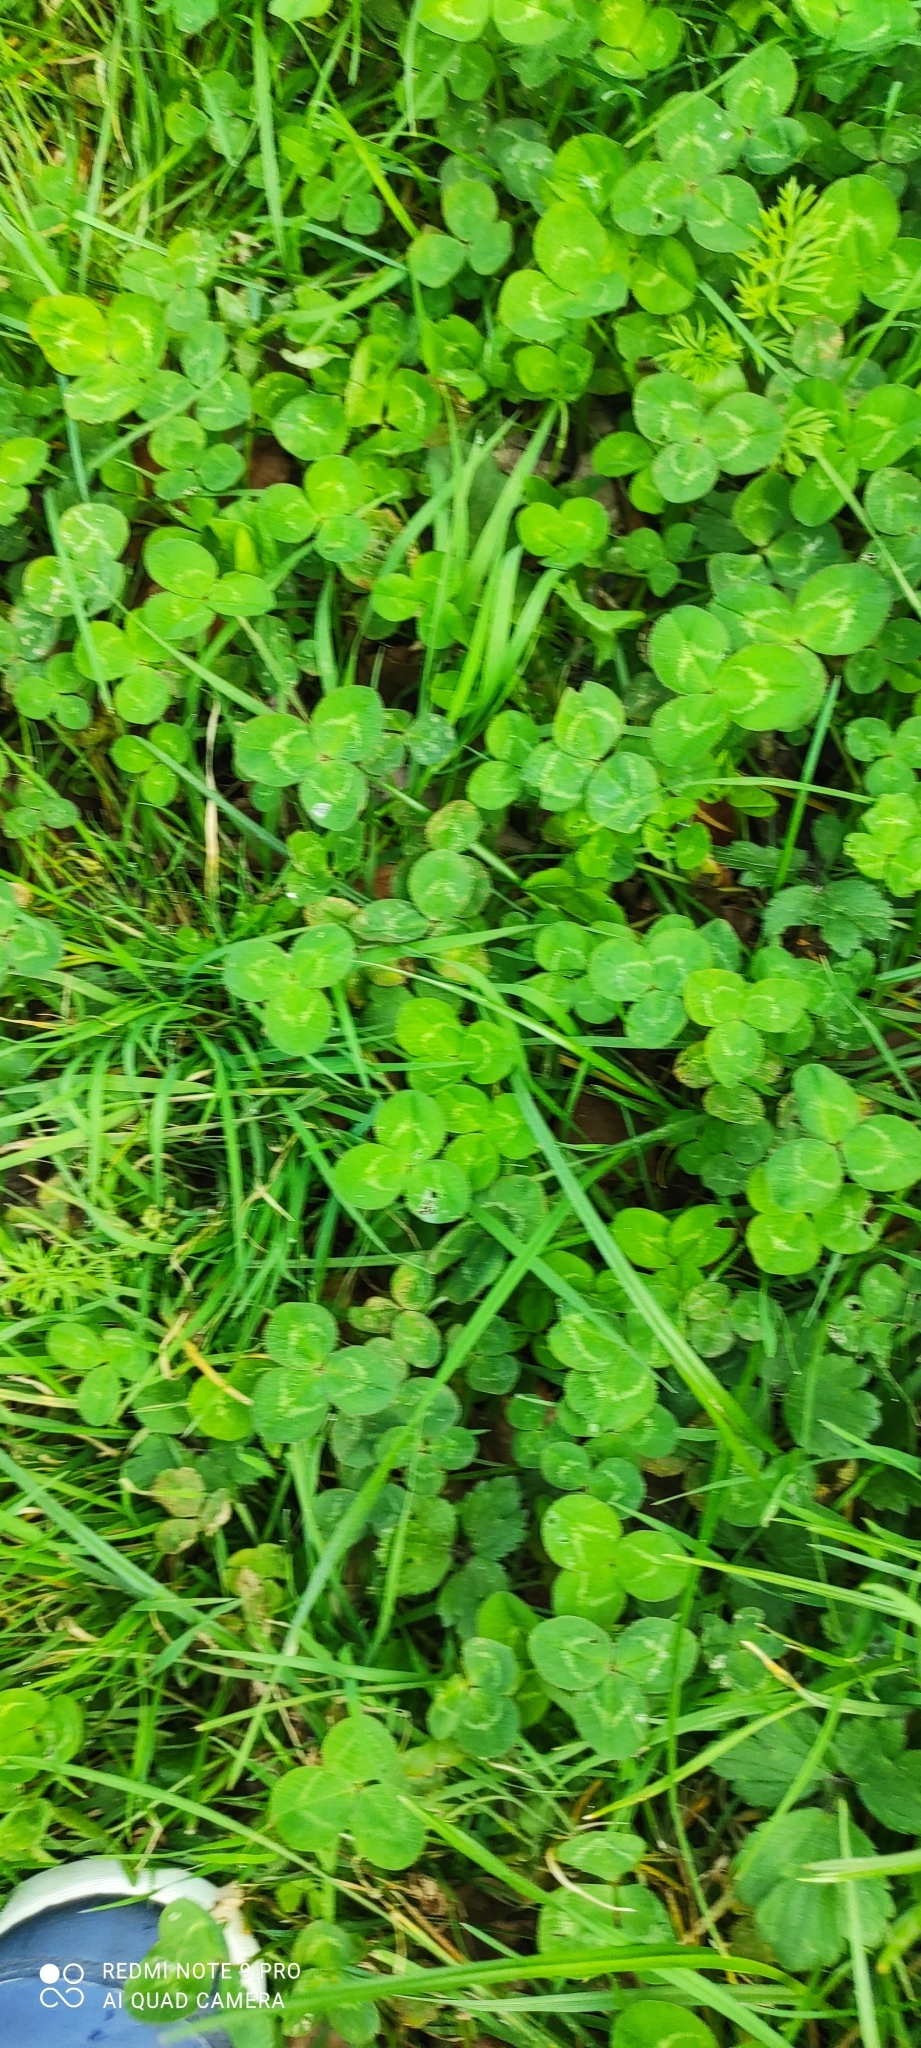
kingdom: Plantae
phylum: Tracheophyta
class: Magnoliopsida
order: Fabales
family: Fabaceae
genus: Trifolium
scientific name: Trifolium repens
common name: White clover
